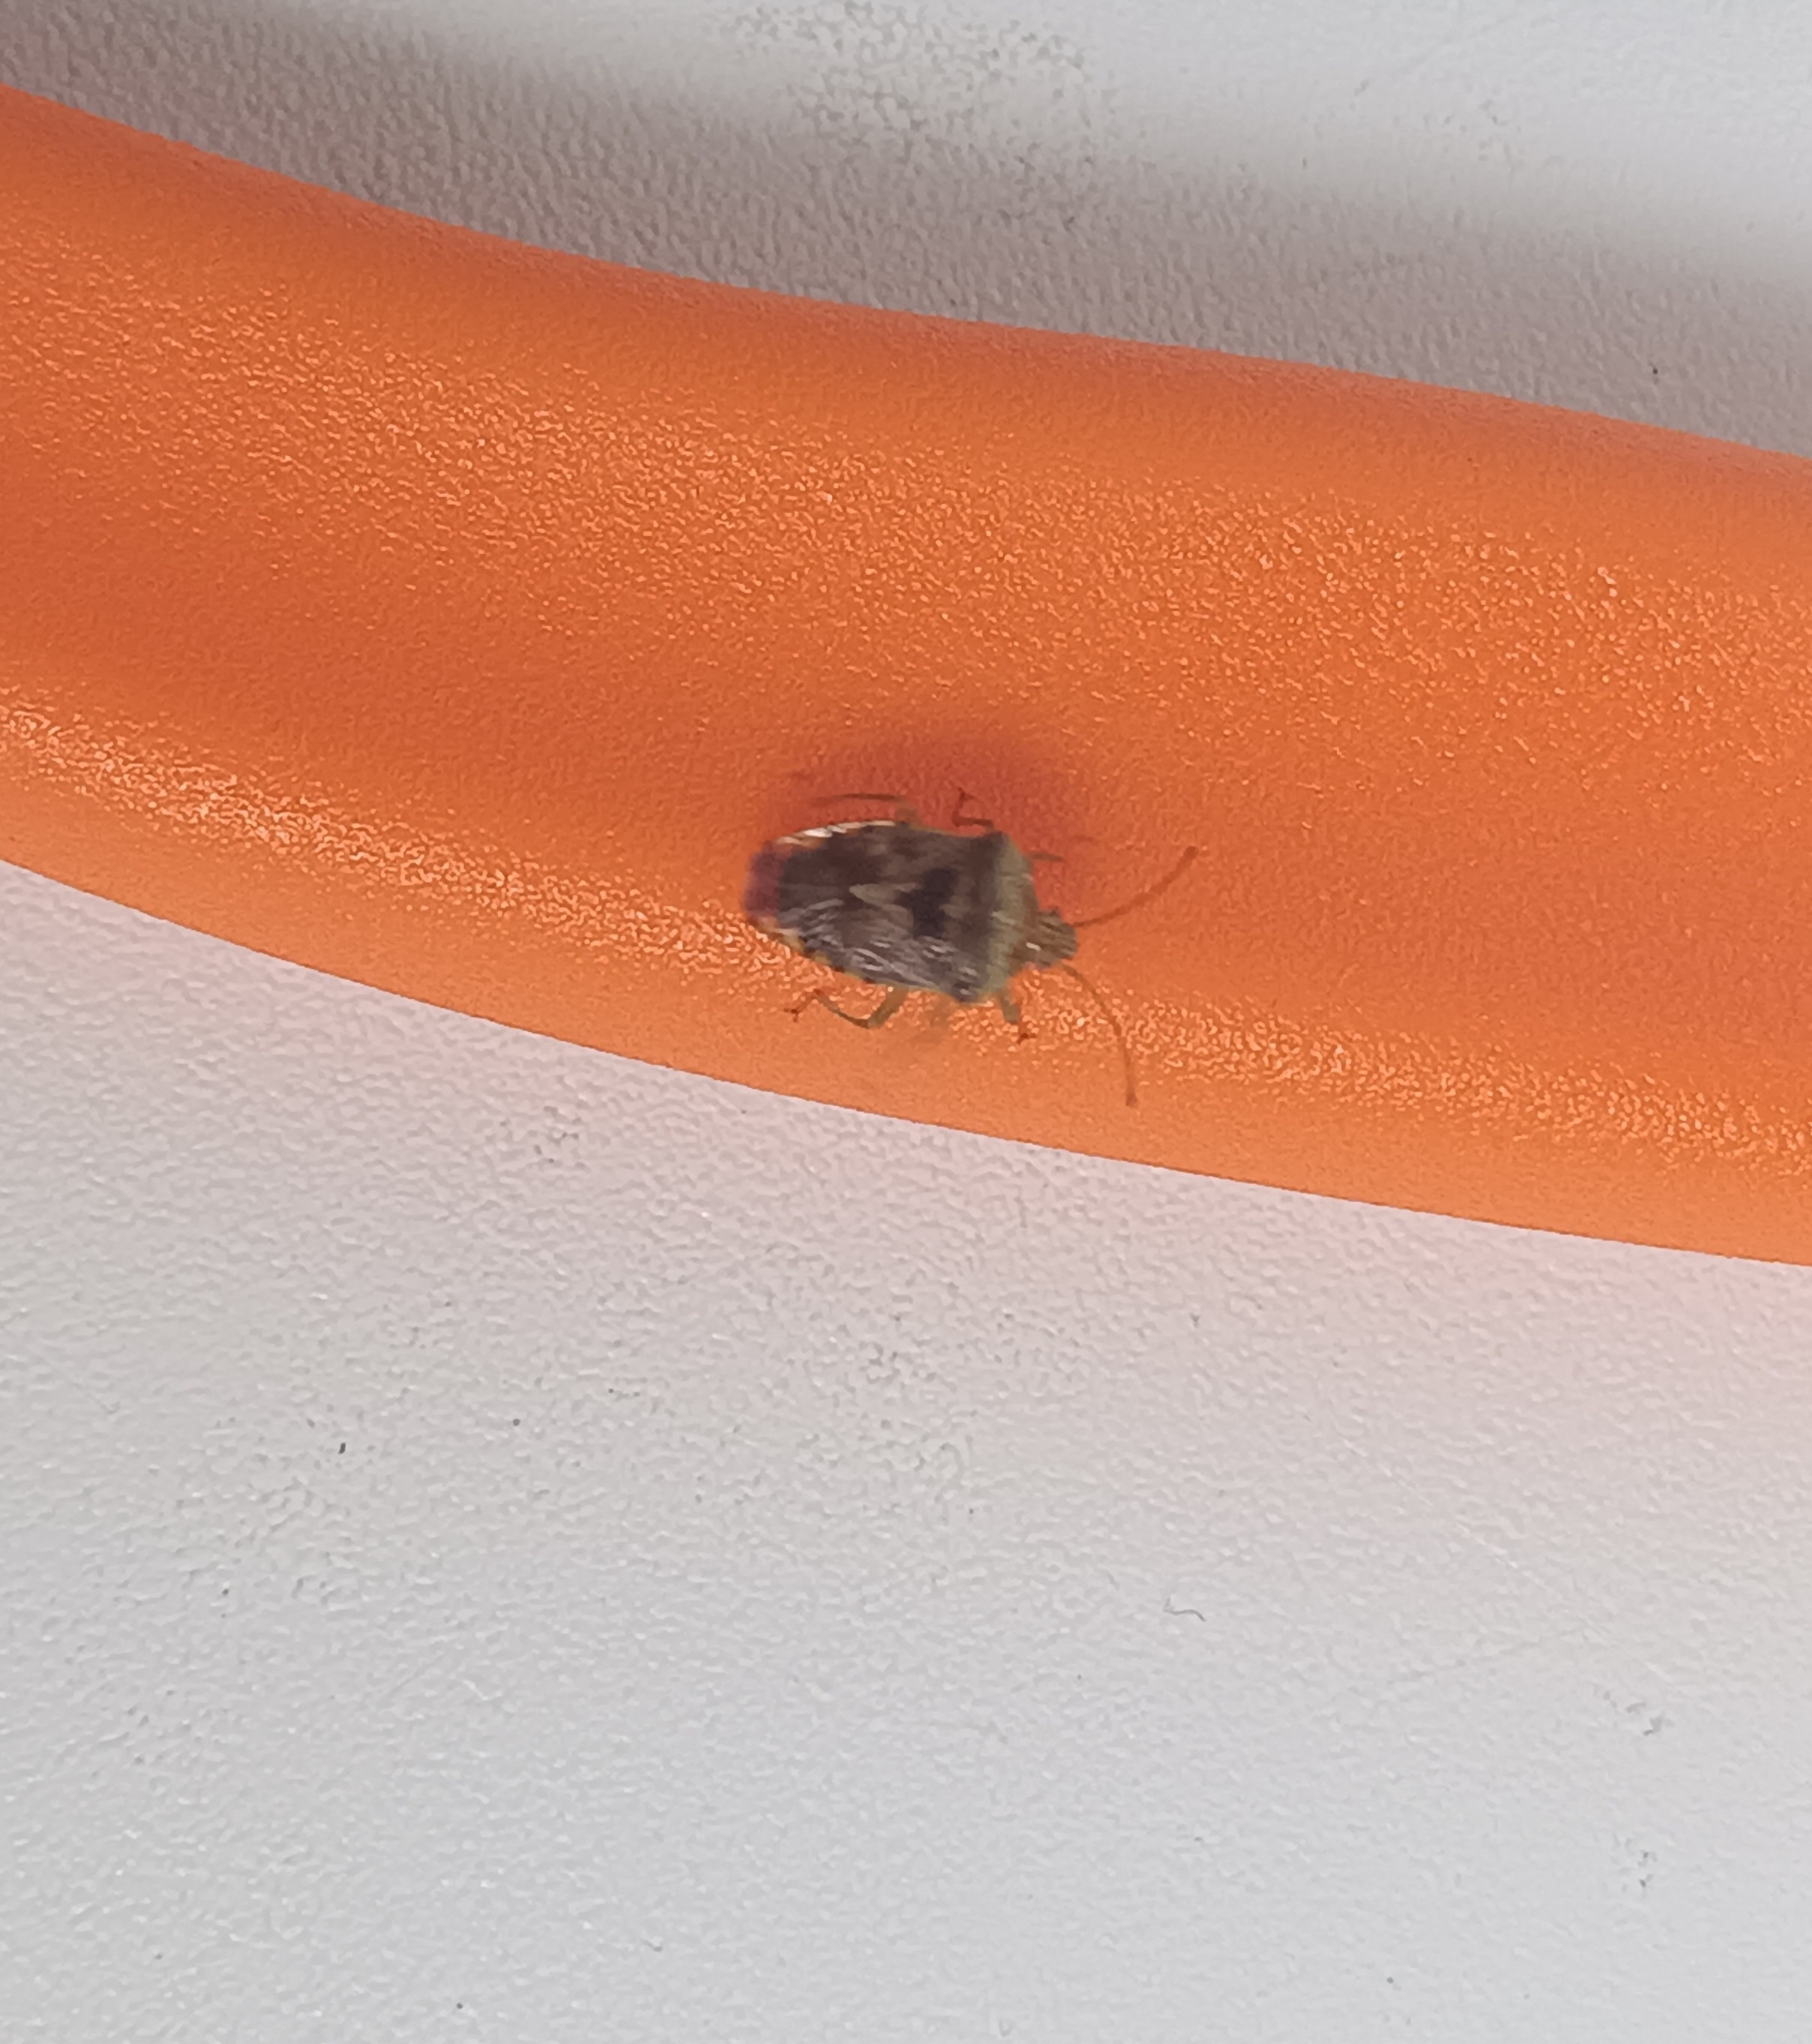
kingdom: Animalia
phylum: Arthropoda
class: Insecta
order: Hemiptera
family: Acanthosomatidae
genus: Elasmucha
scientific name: Elasmucha grisea
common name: Parent bug
